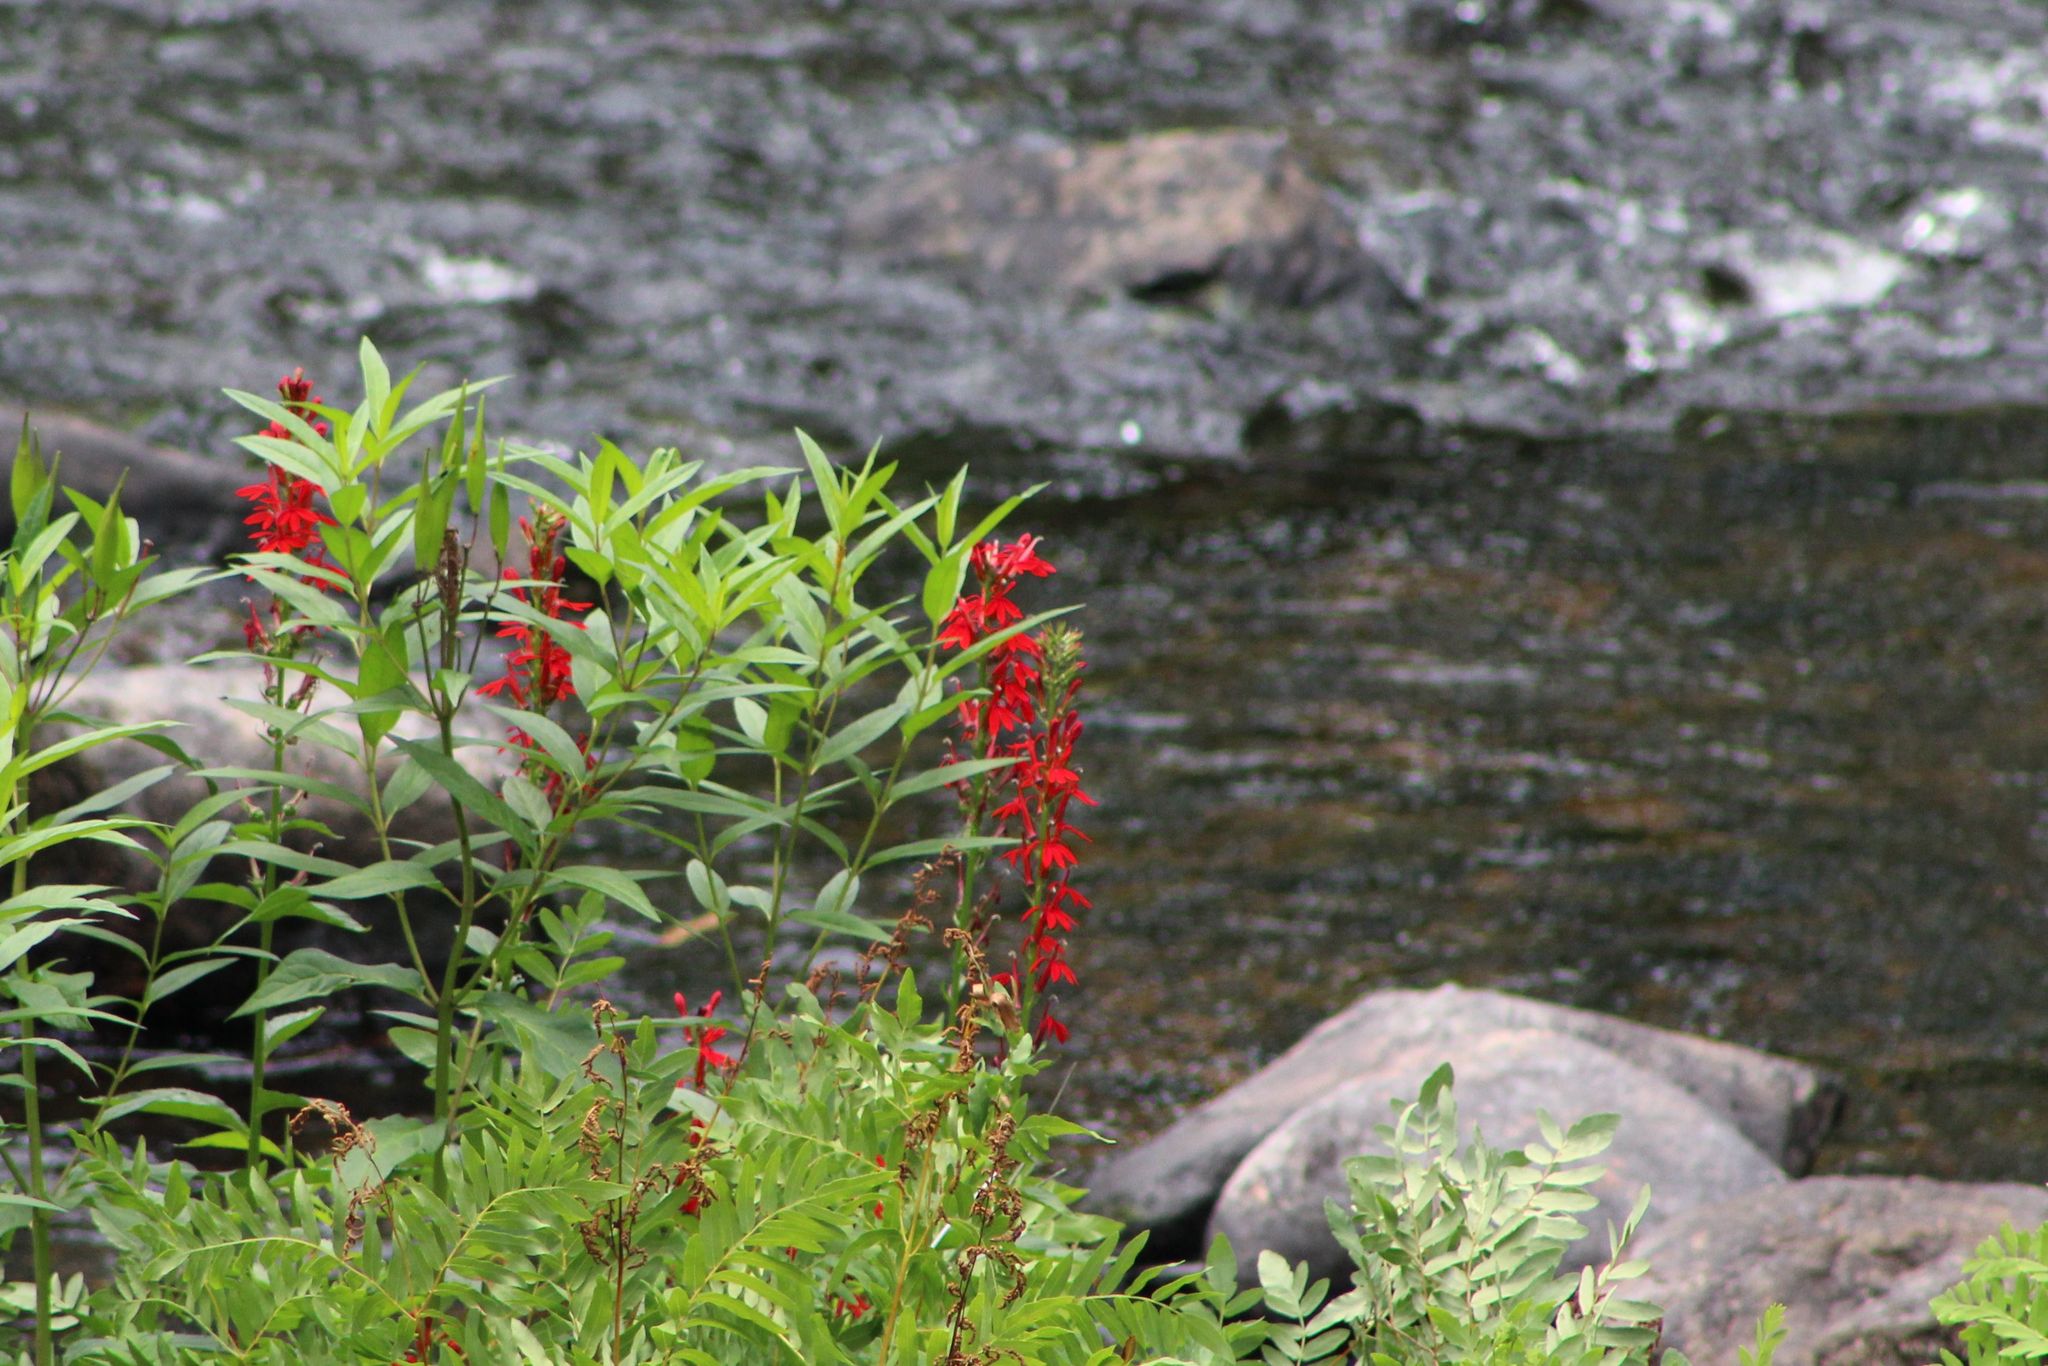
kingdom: Plantae
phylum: Tracheophyta
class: Magnoliopsida
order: Asterales
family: Campanulaceae
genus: Lobelia
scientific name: Lobelia cardinalis
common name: Cardinal flower
